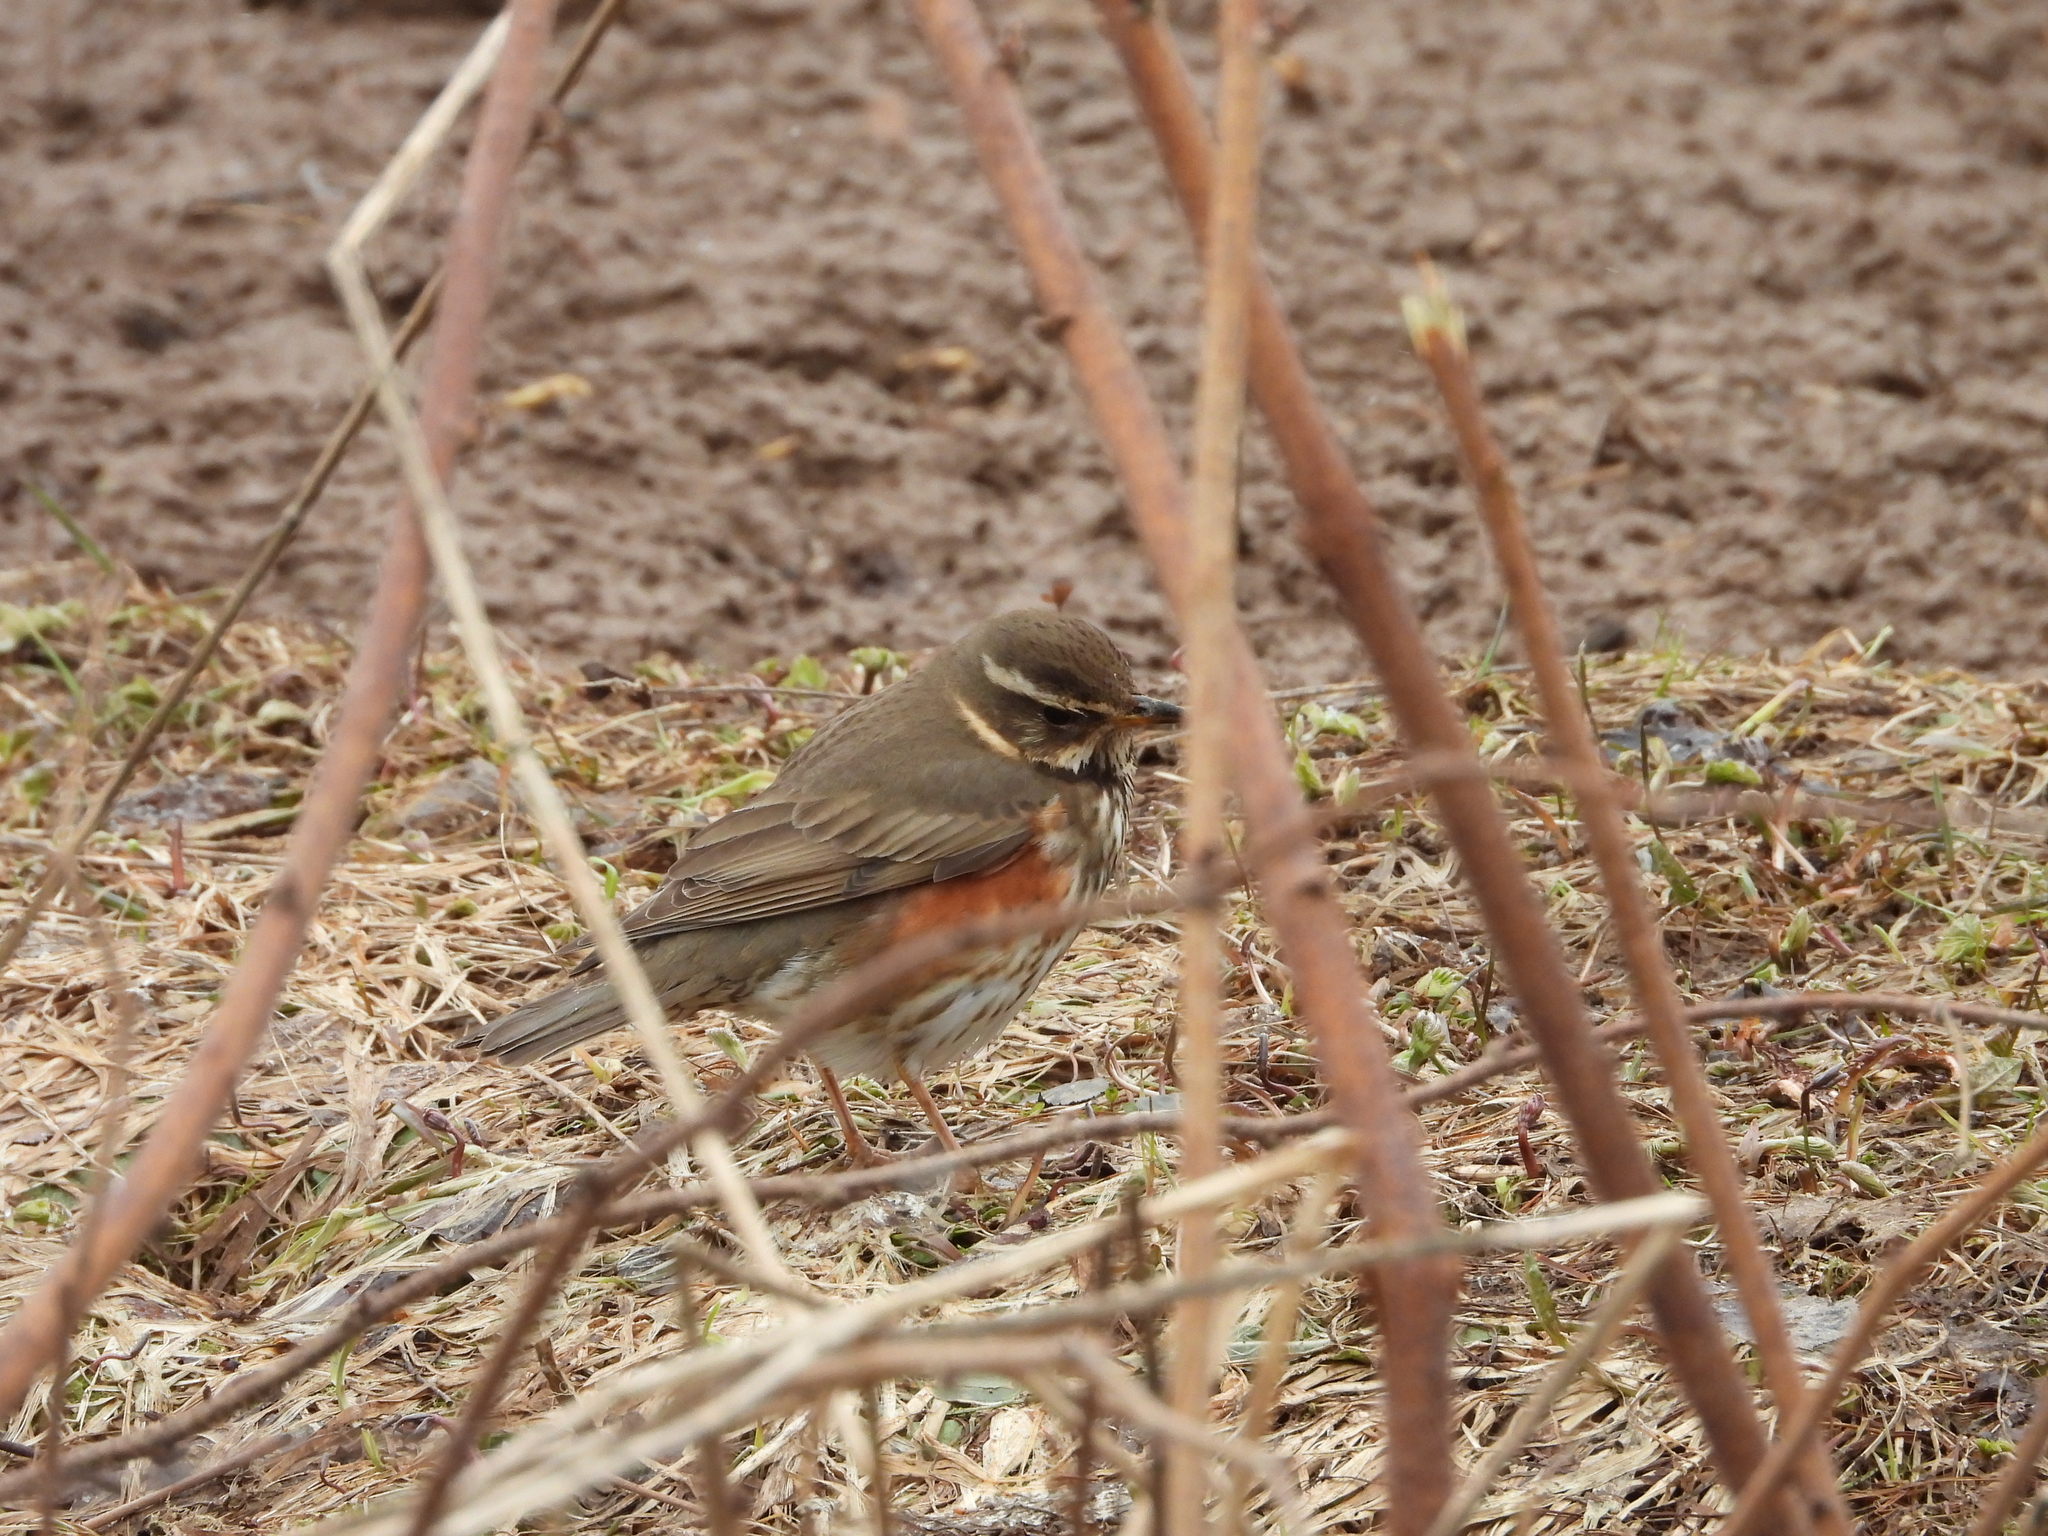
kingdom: Animalia
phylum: Chordata
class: Aves
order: Passeriformes
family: Turdidae
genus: Turdus
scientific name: Turdus iliacus
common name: Redwing
